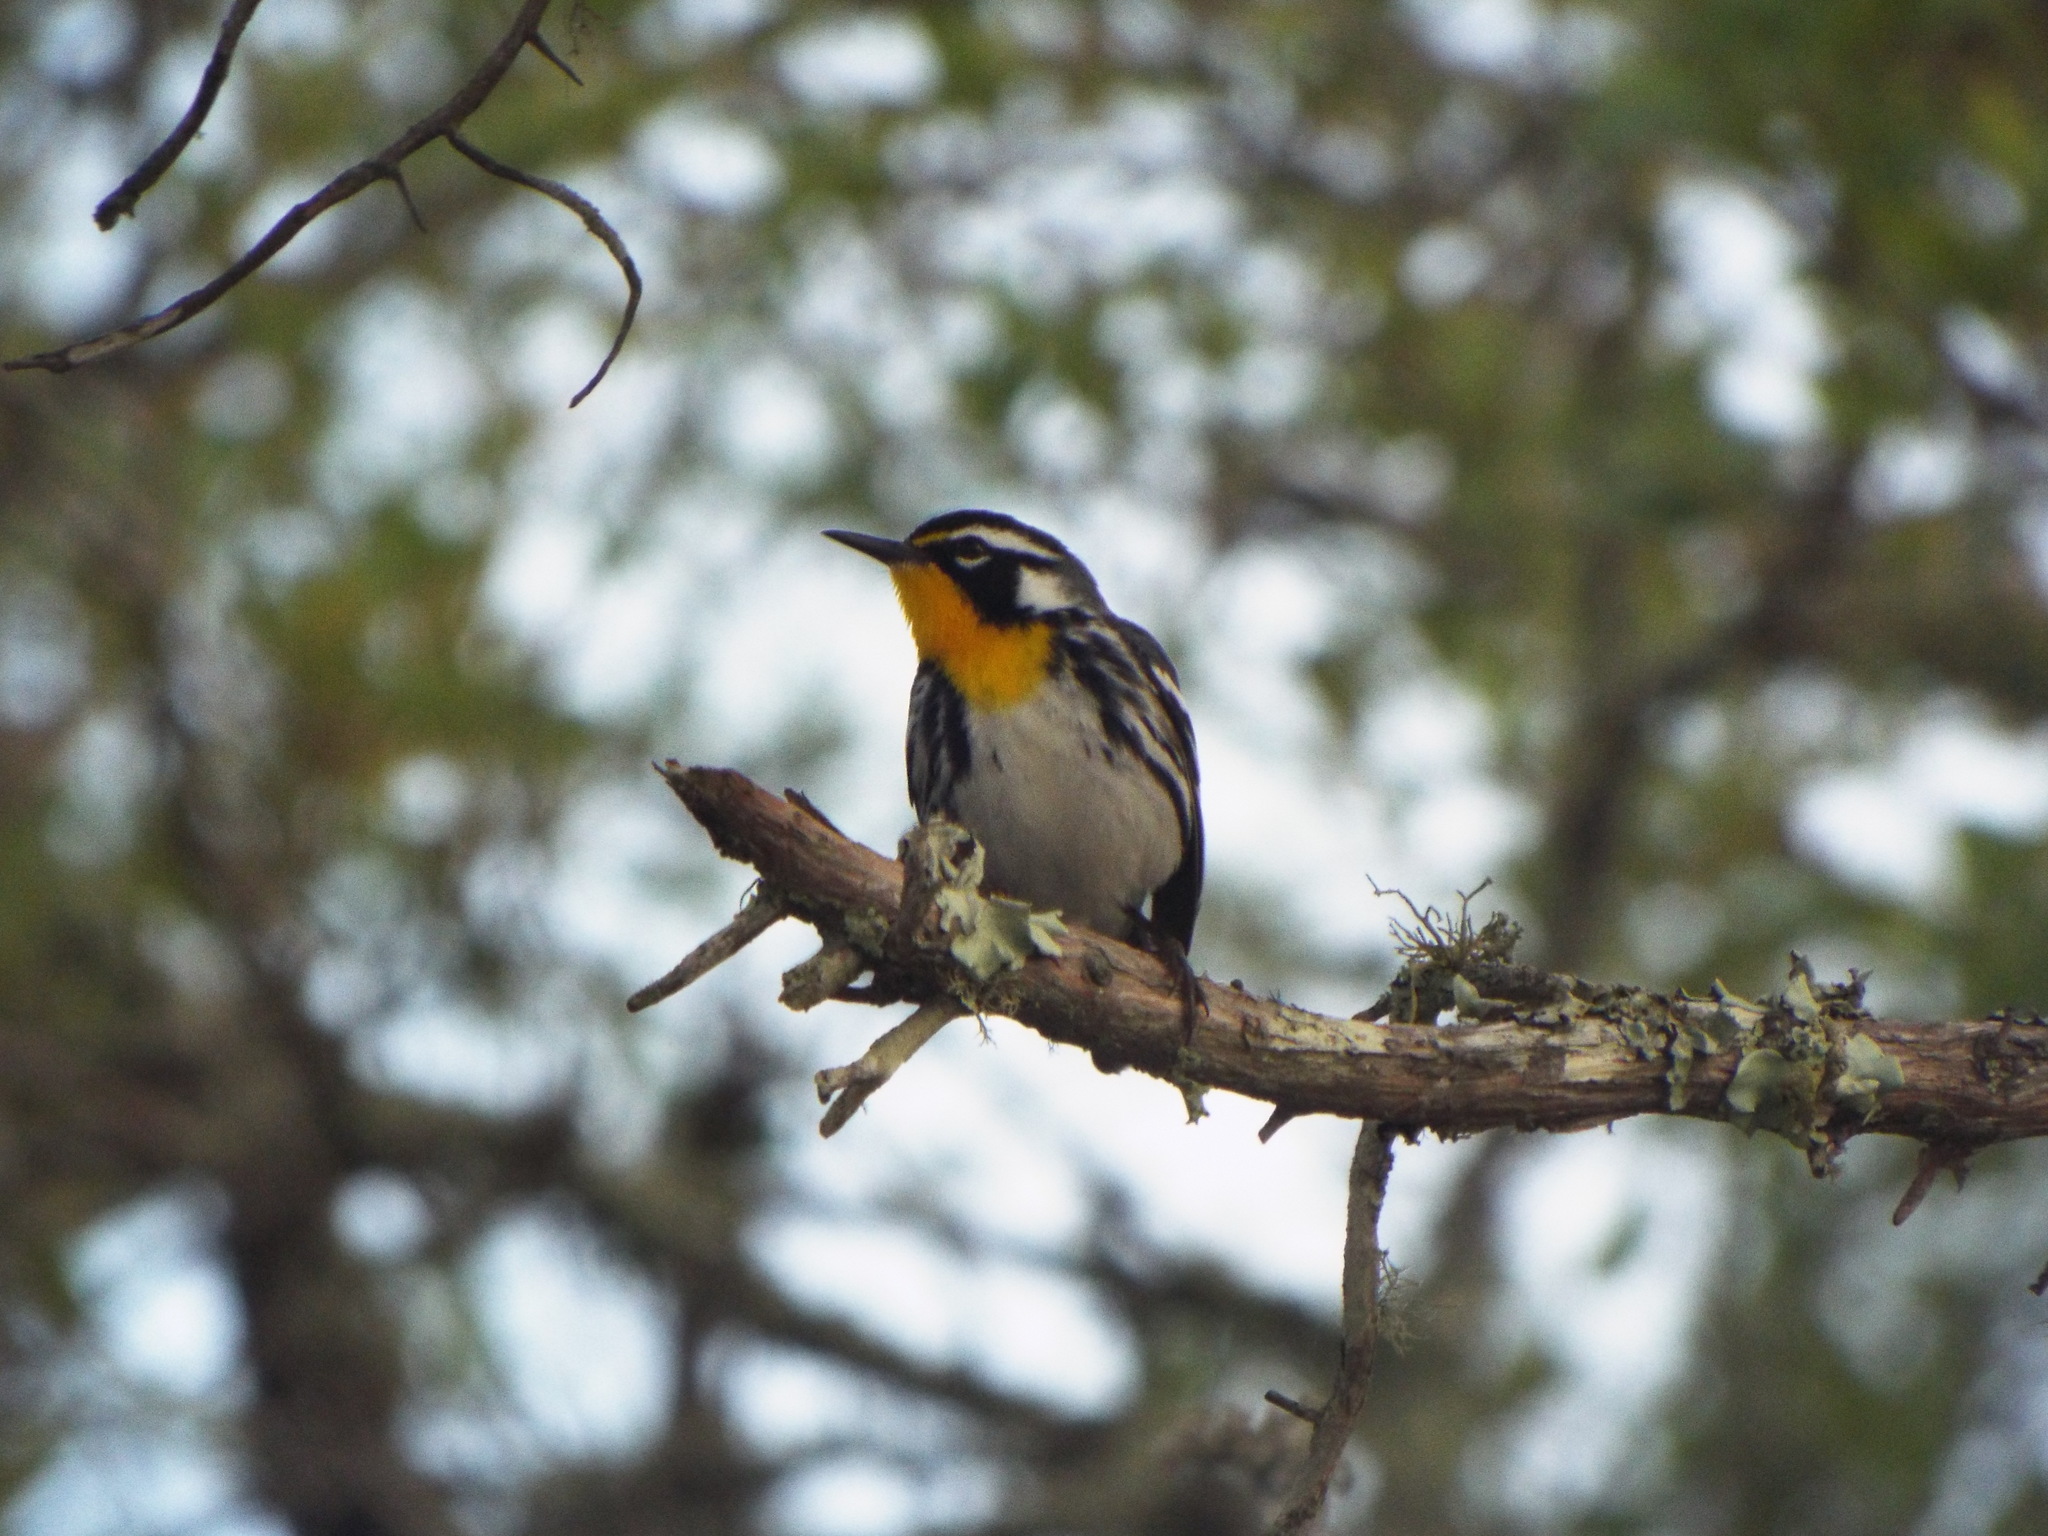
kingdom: Animalia
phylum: Chordata
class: Aves
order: Passeriformes
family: Parulidae
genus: Setophaga
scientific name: Setophaga dominica
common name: Yellow-throated warbler
